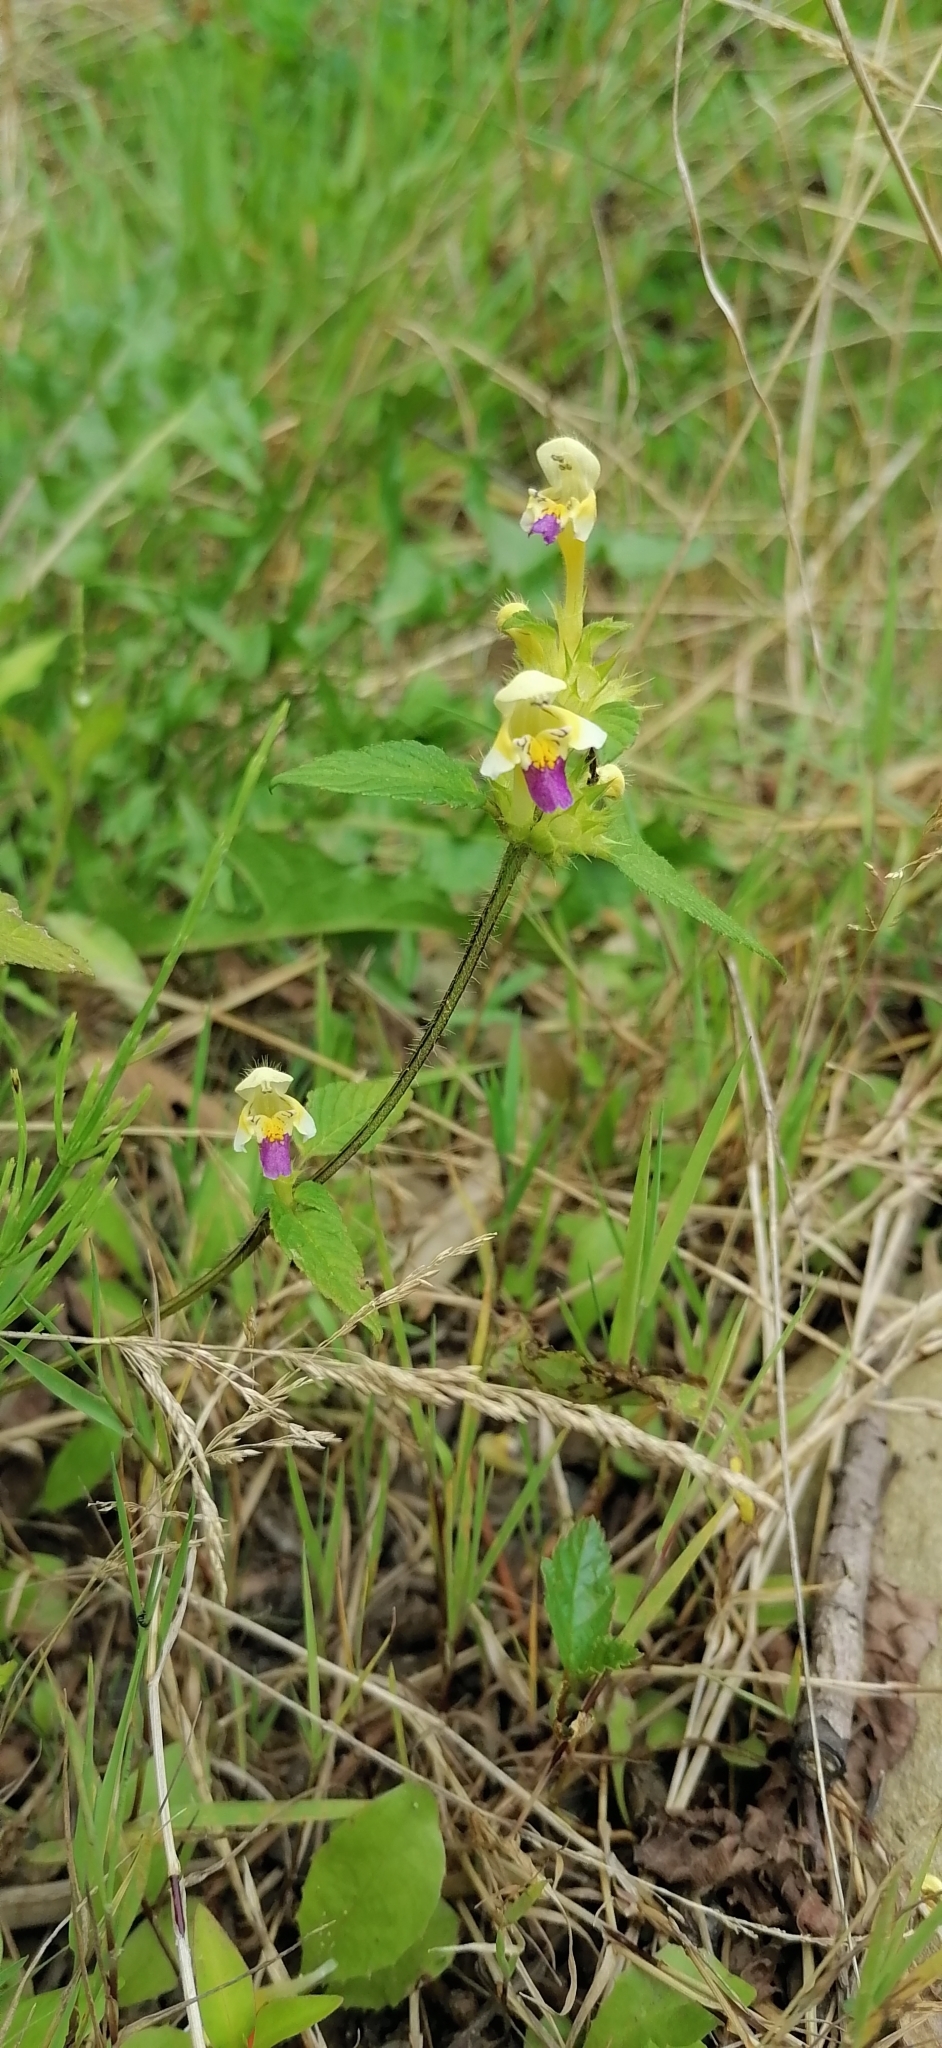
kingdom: Plantae
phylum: Tracheophyta
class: Magnoliopsida
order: Lamiales
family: Lamiaceae
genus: Galeopsis
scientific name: Galeopsis speciosa
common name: Large-flowered hemp-nettle
